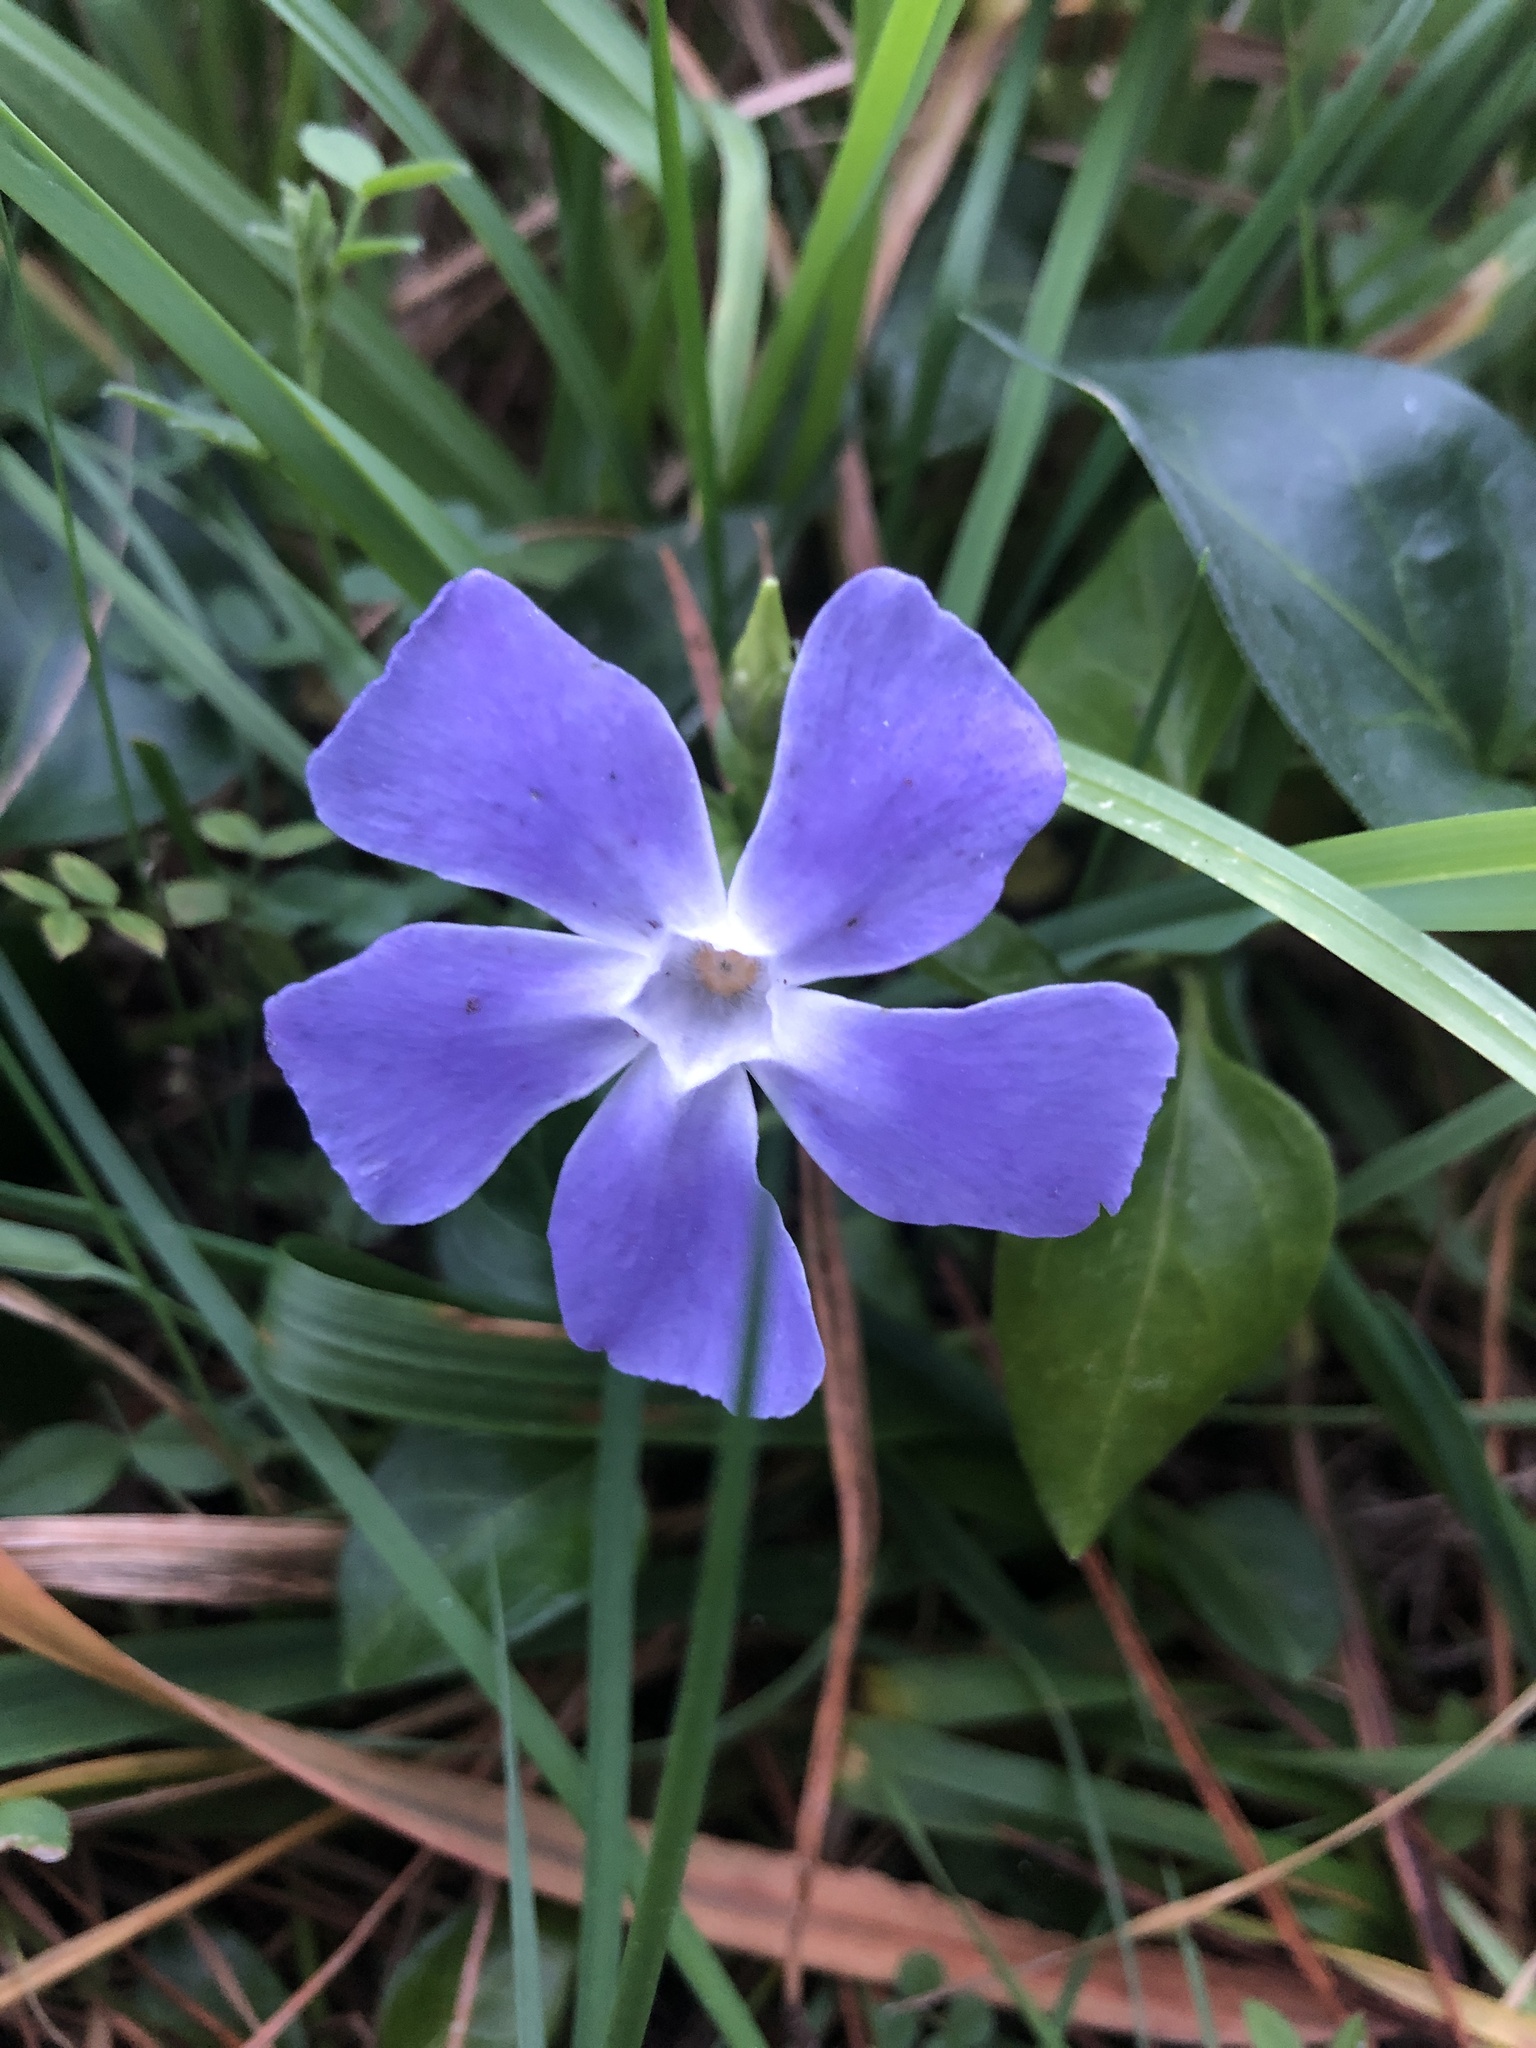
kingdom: Plantae
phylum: Tracheophyta
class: Magnoliopsida
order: Gentianales
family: Apocynaceae
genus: Vinca
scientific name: Vinca major
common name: Greater periwinkle
